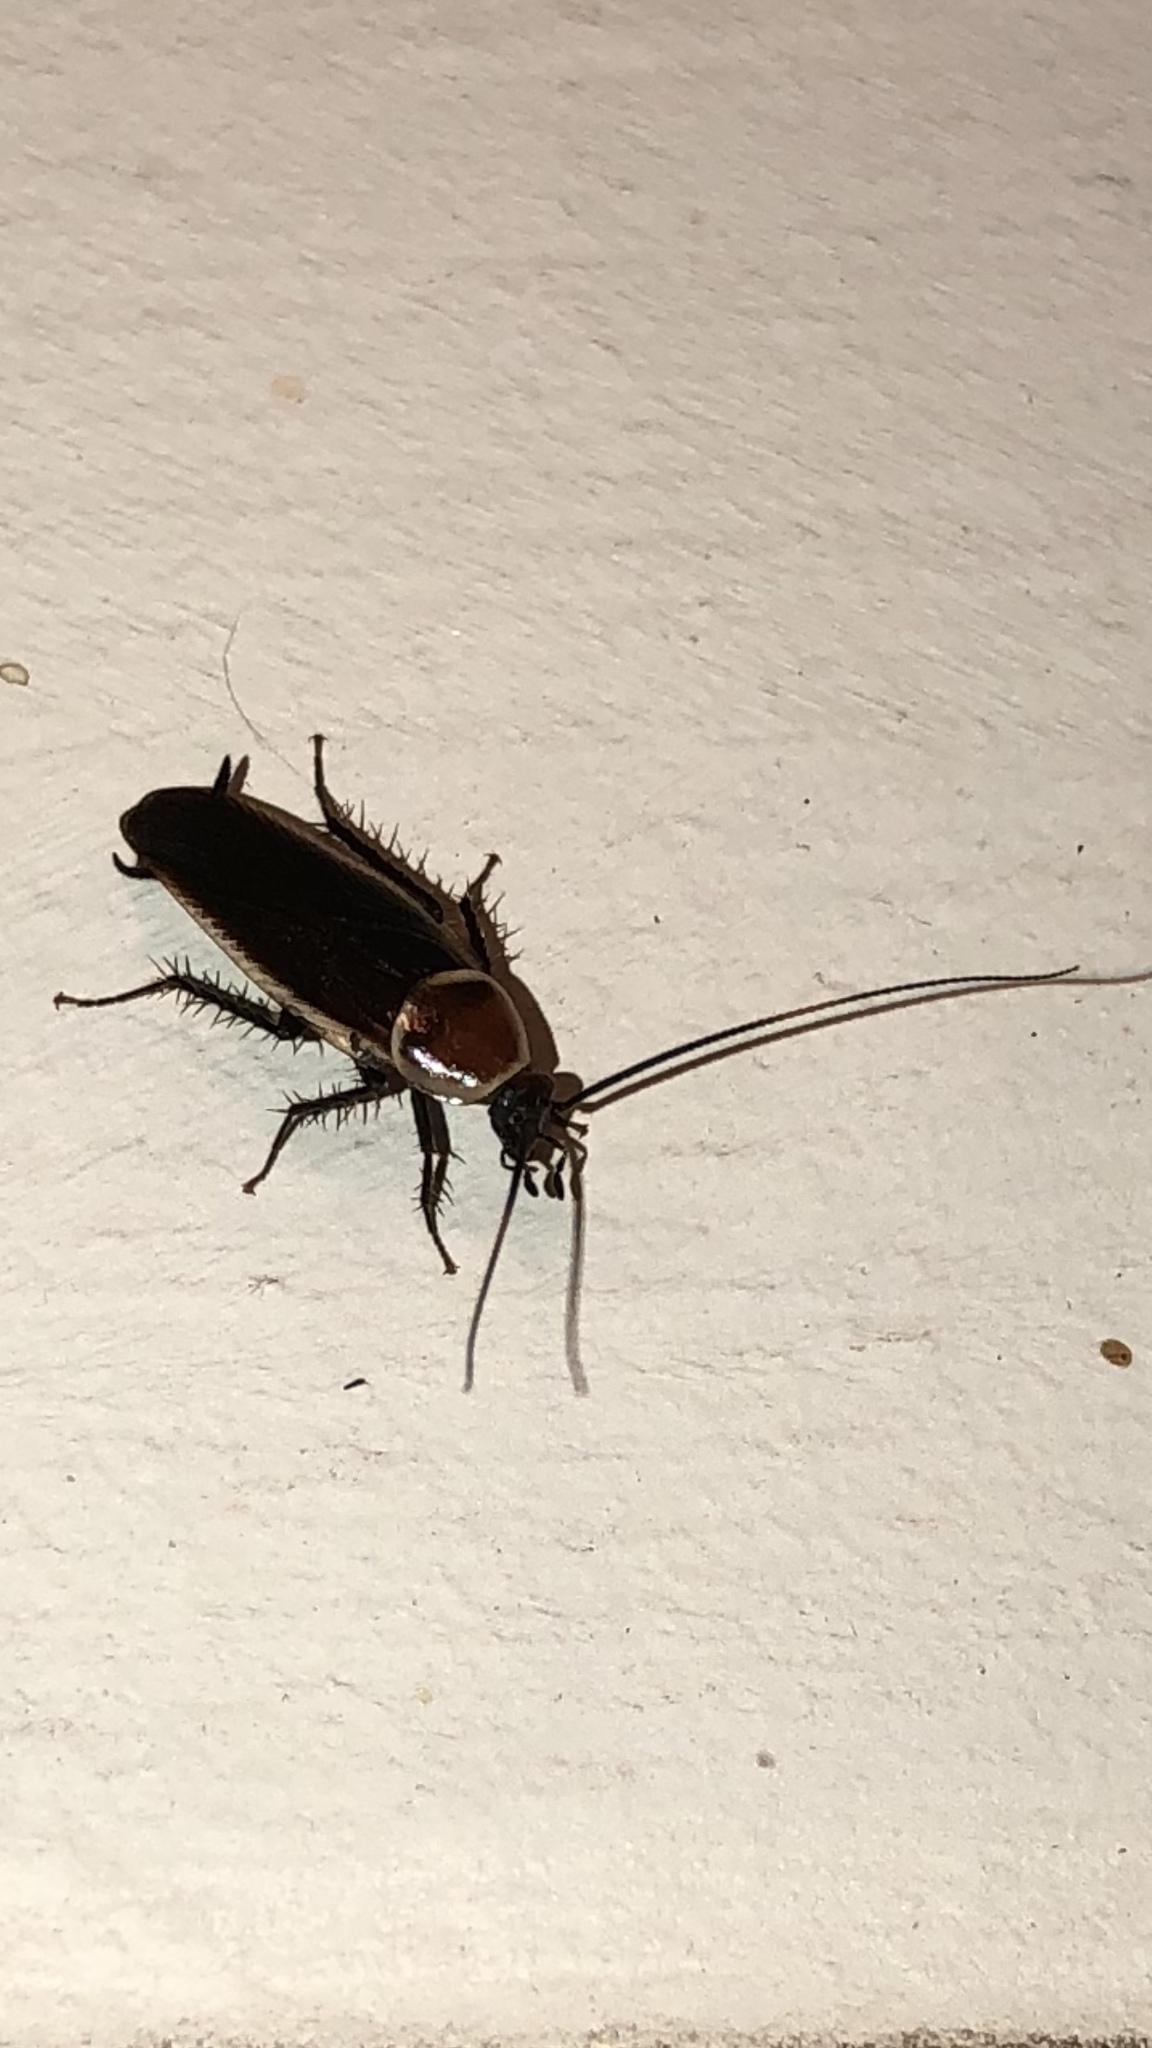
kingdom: Animalia
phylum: Arthropoda
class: Insecta
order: Blattodea
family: Ectobiidae
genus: Pseudomops
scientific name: Pseudomops septentrionalis
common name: Pale-bordered field cockroach
